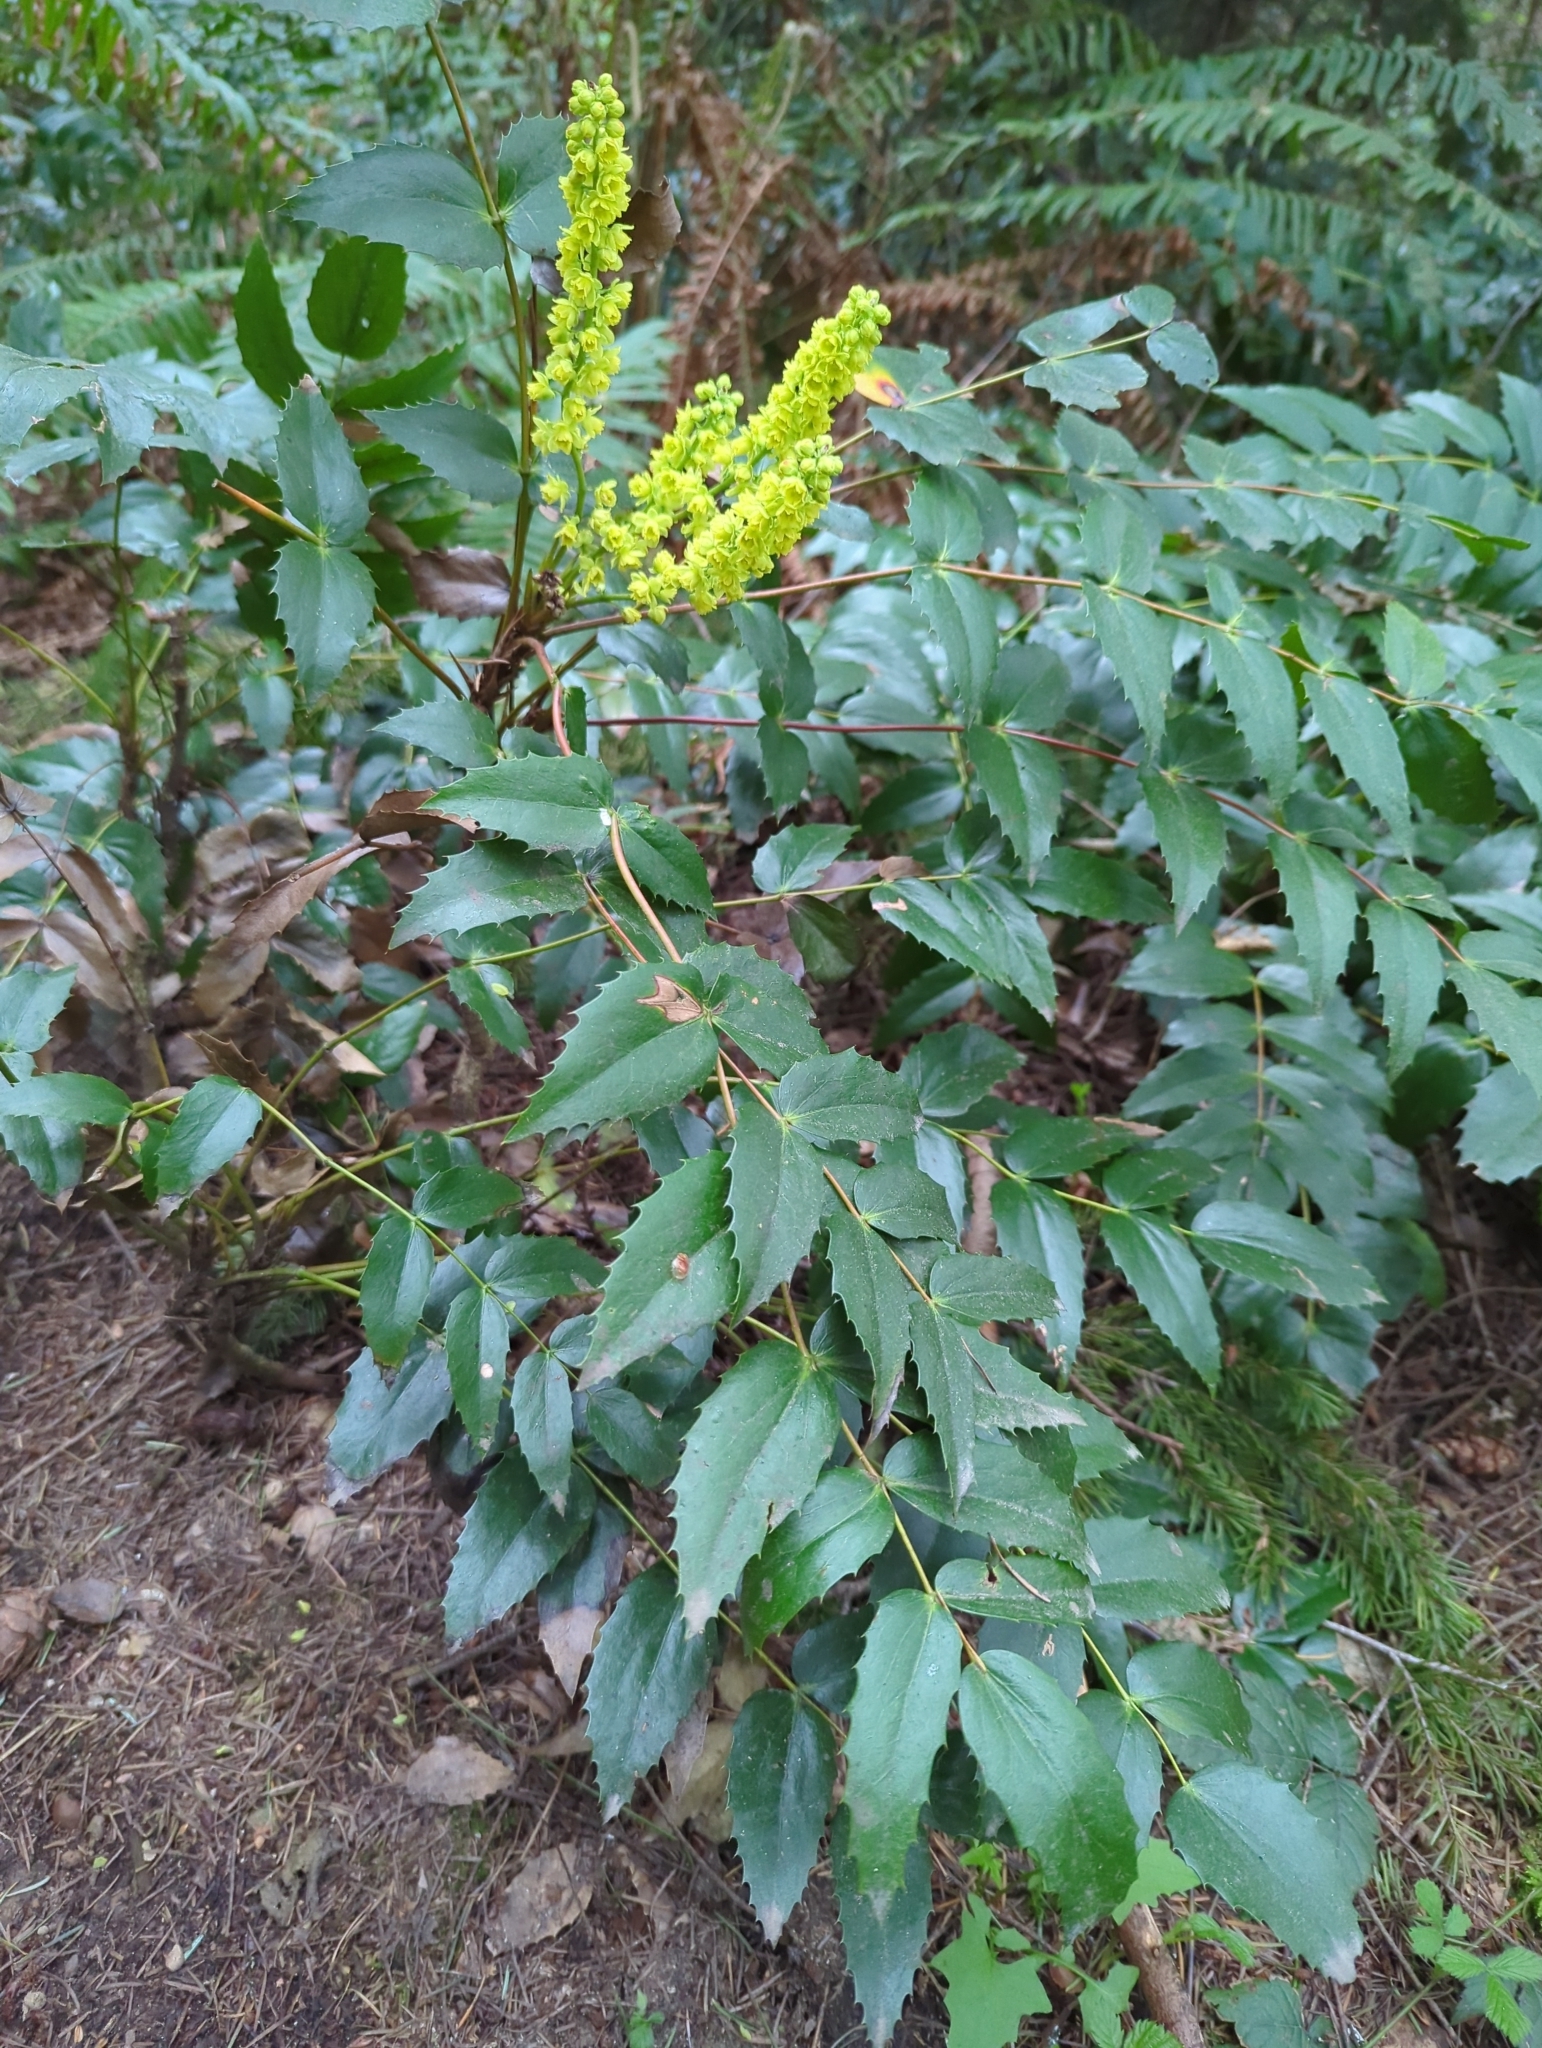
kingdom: Plantae
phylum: Tracheophyta
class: Magnoliopsida
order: Ranunculales
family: Berberidaceae
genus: Mahonia
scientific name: Mahonia nervosa
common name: Cascade oregon-grape
